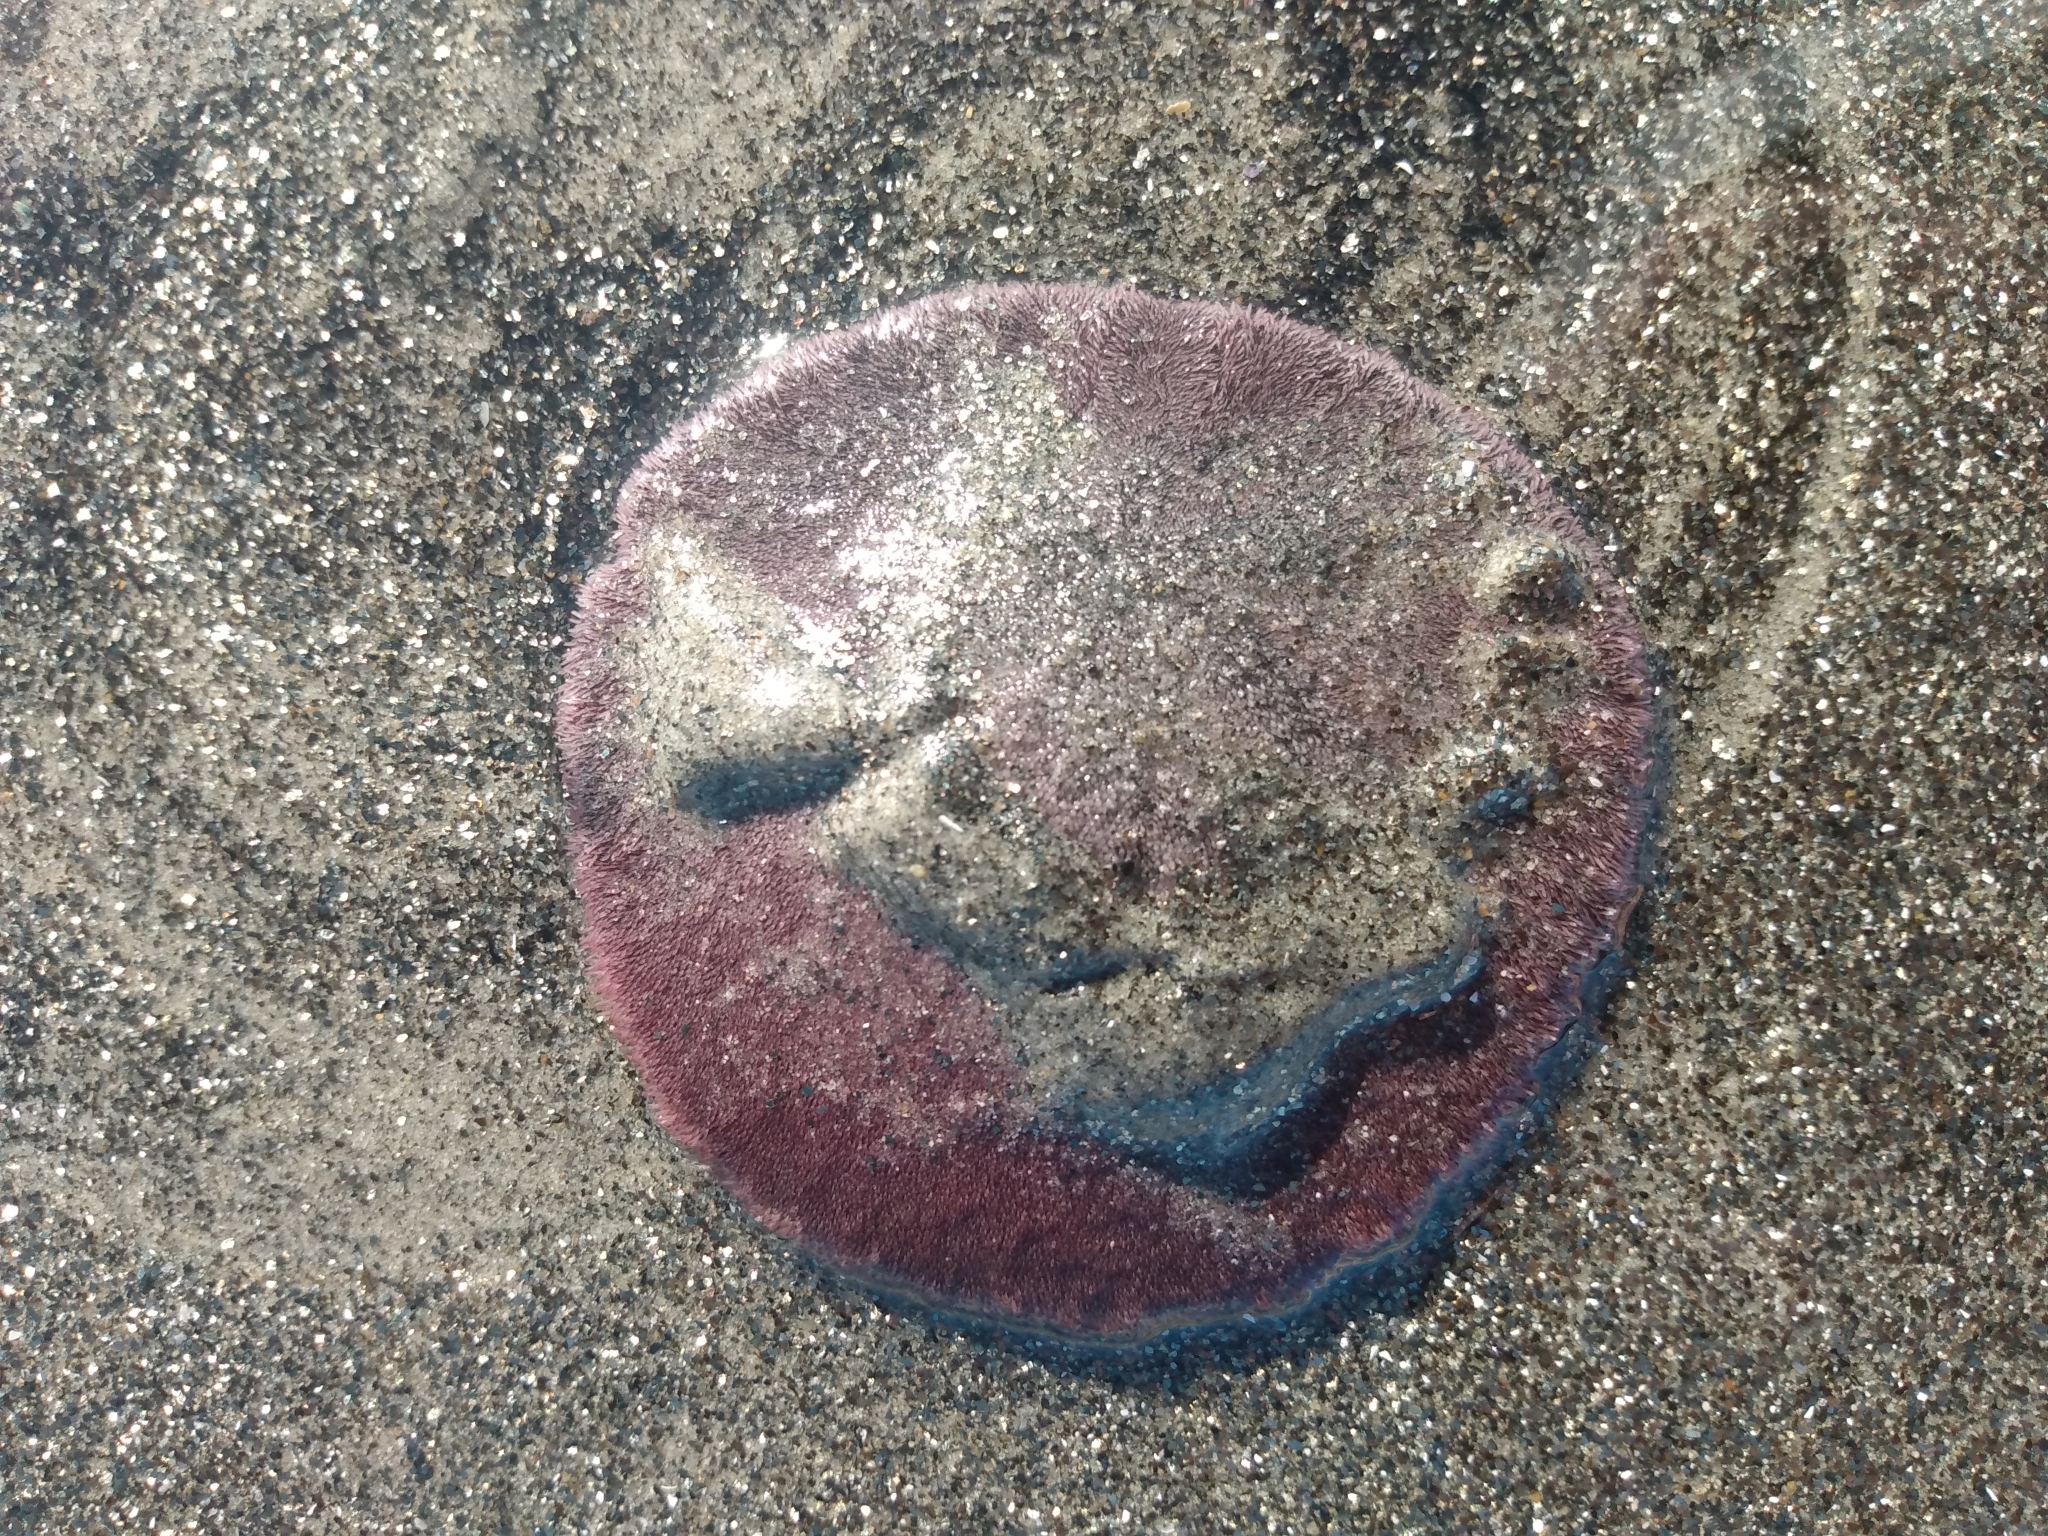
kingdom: Animalia
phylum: Echinodermata
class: Echinoidea
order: Echinolampadacea
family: Dendrasteridae
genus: Dendraster
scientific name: Dendraster excentricus
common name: Eccentric sand dollar sea urchin
